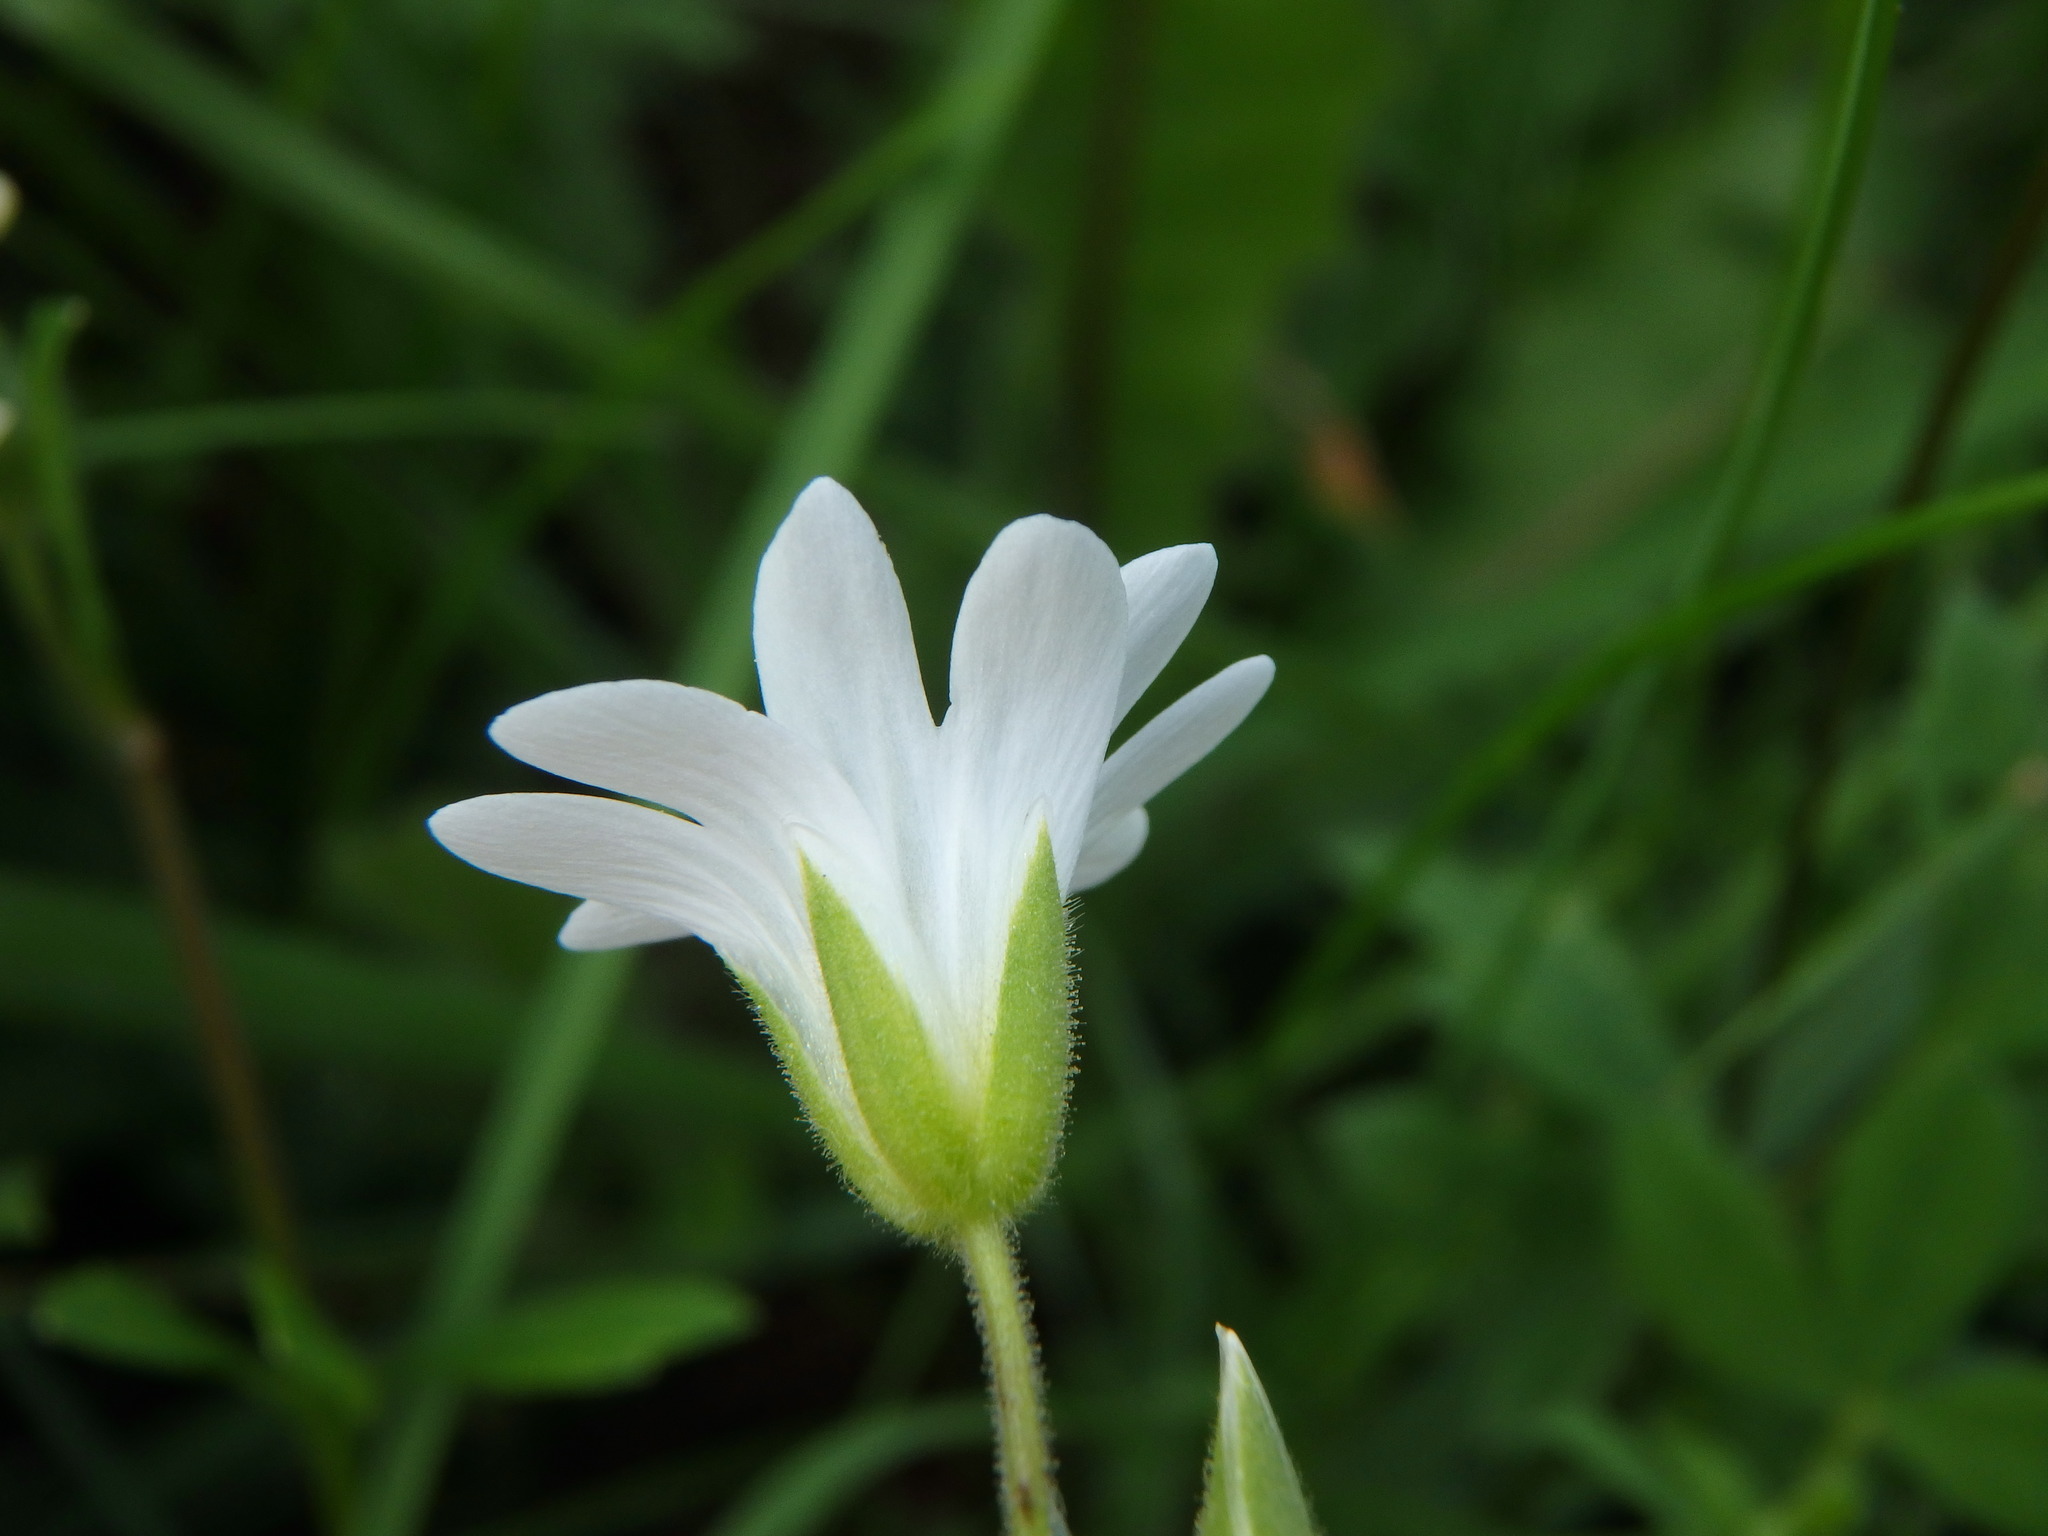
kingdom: Plantae
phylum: Tracheophyta
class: Magnoliopsida
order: Caryophyllales
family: Caryophyllaceae
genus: Cerastium
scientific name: Cerastium arvense
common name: Field mouse-ear
